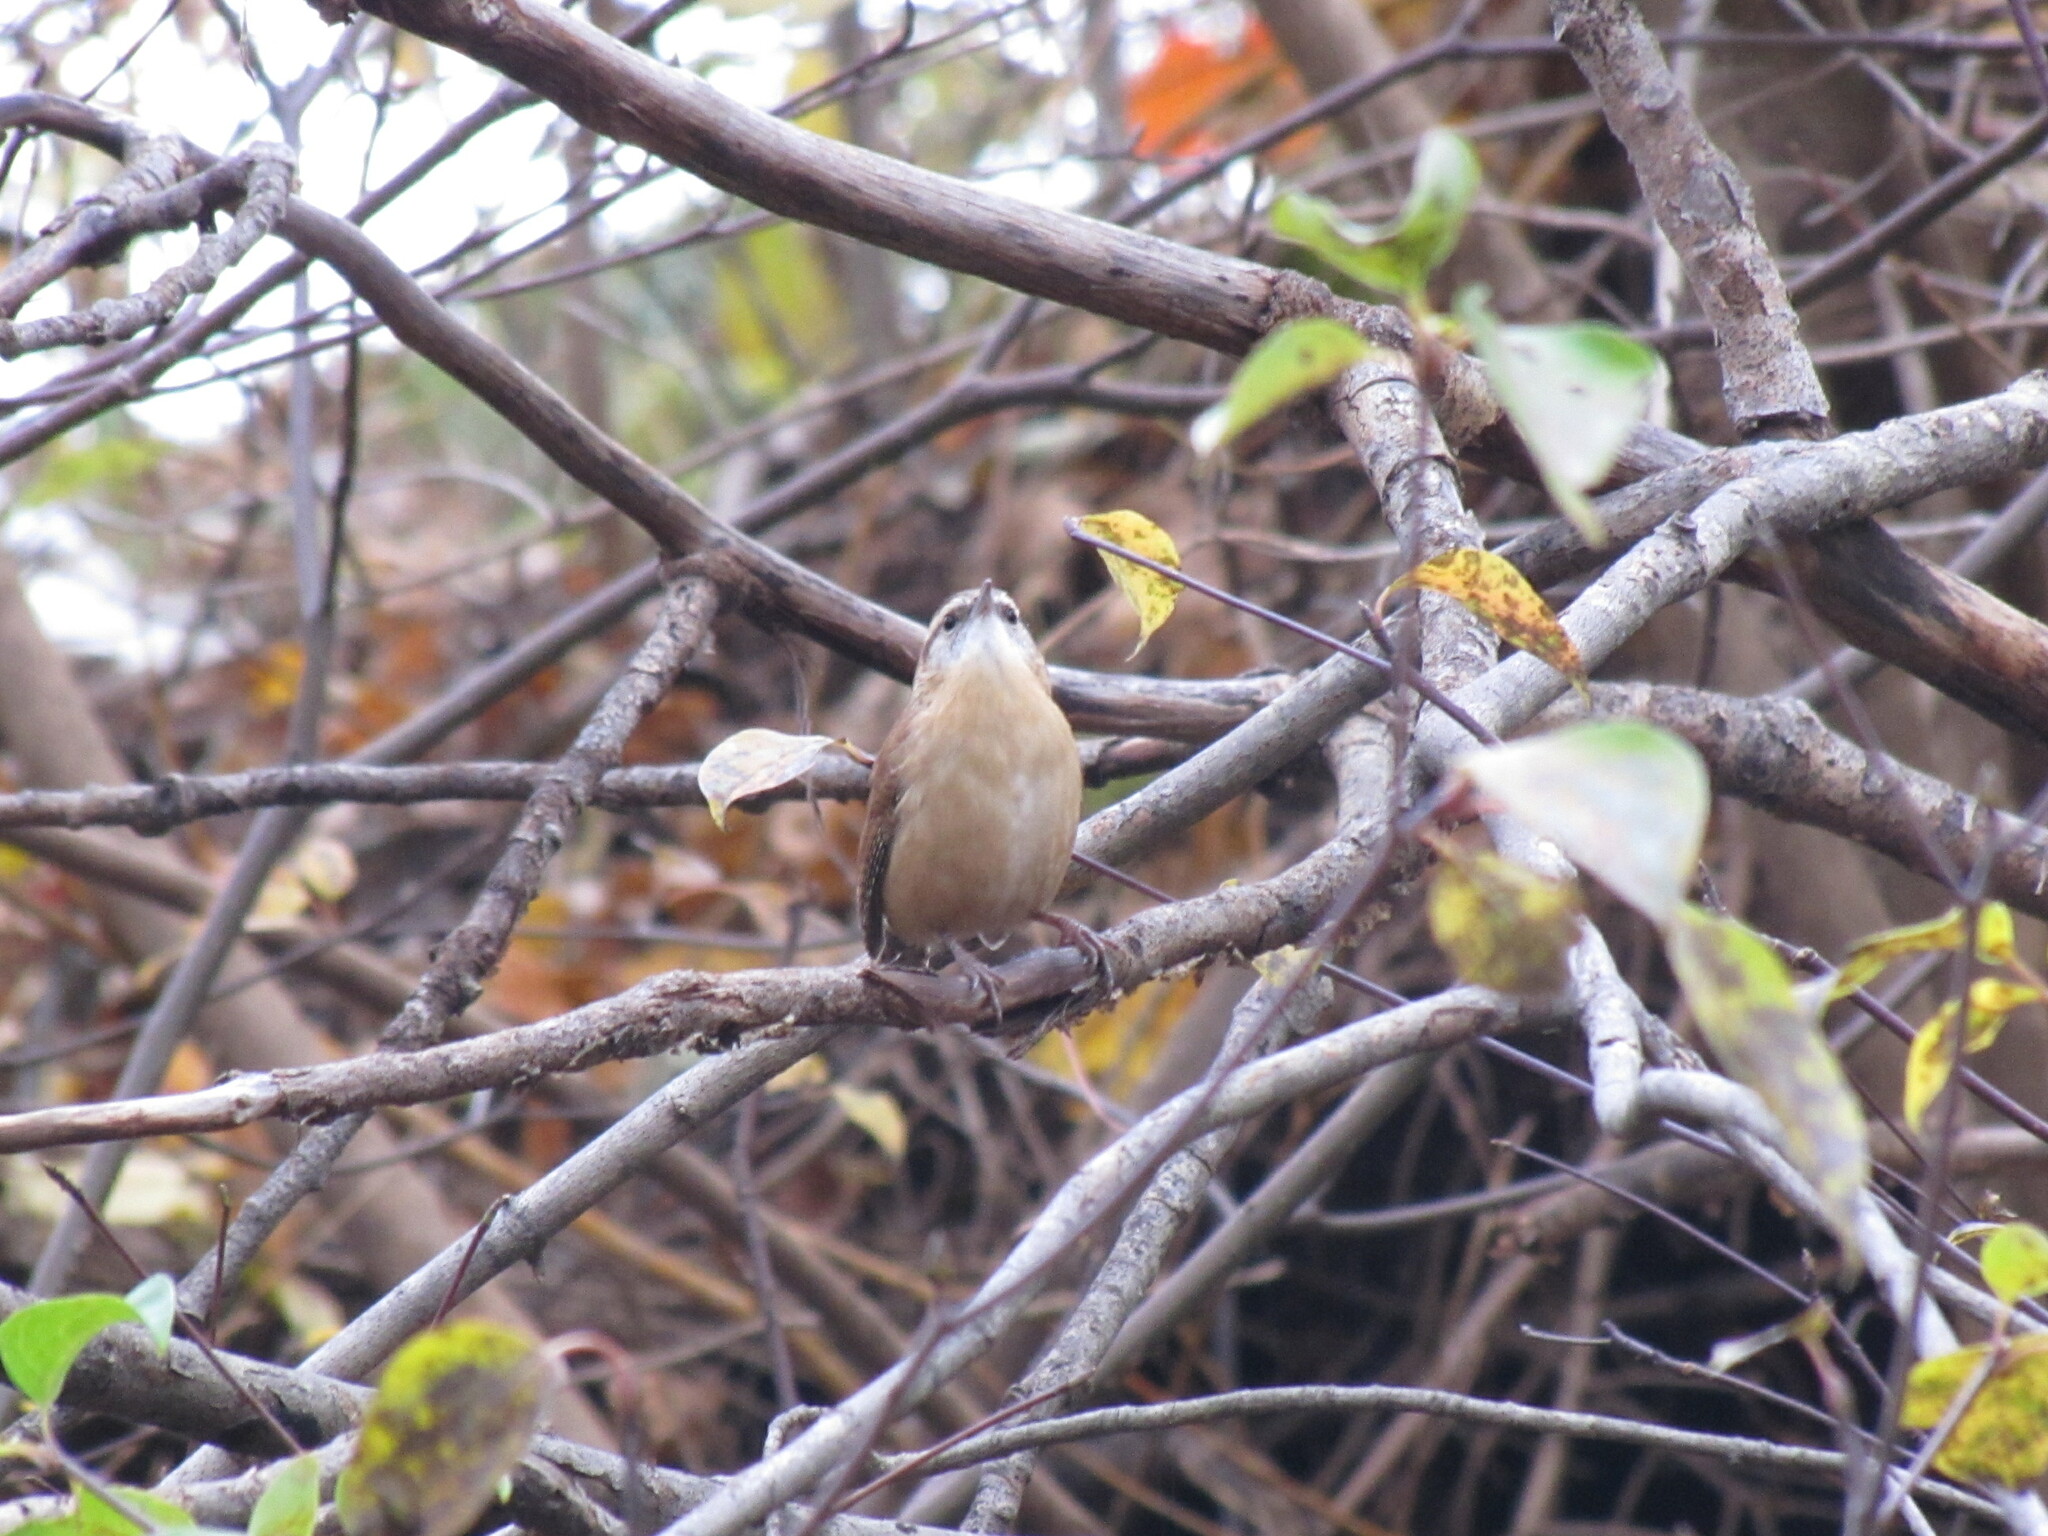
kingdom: Animalia
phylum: Chordata
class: Aves
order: Passeriformes
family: Troglodytidae
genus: Thryothorus
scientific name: Thryothorus ludovicianus
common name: Carolina wren
